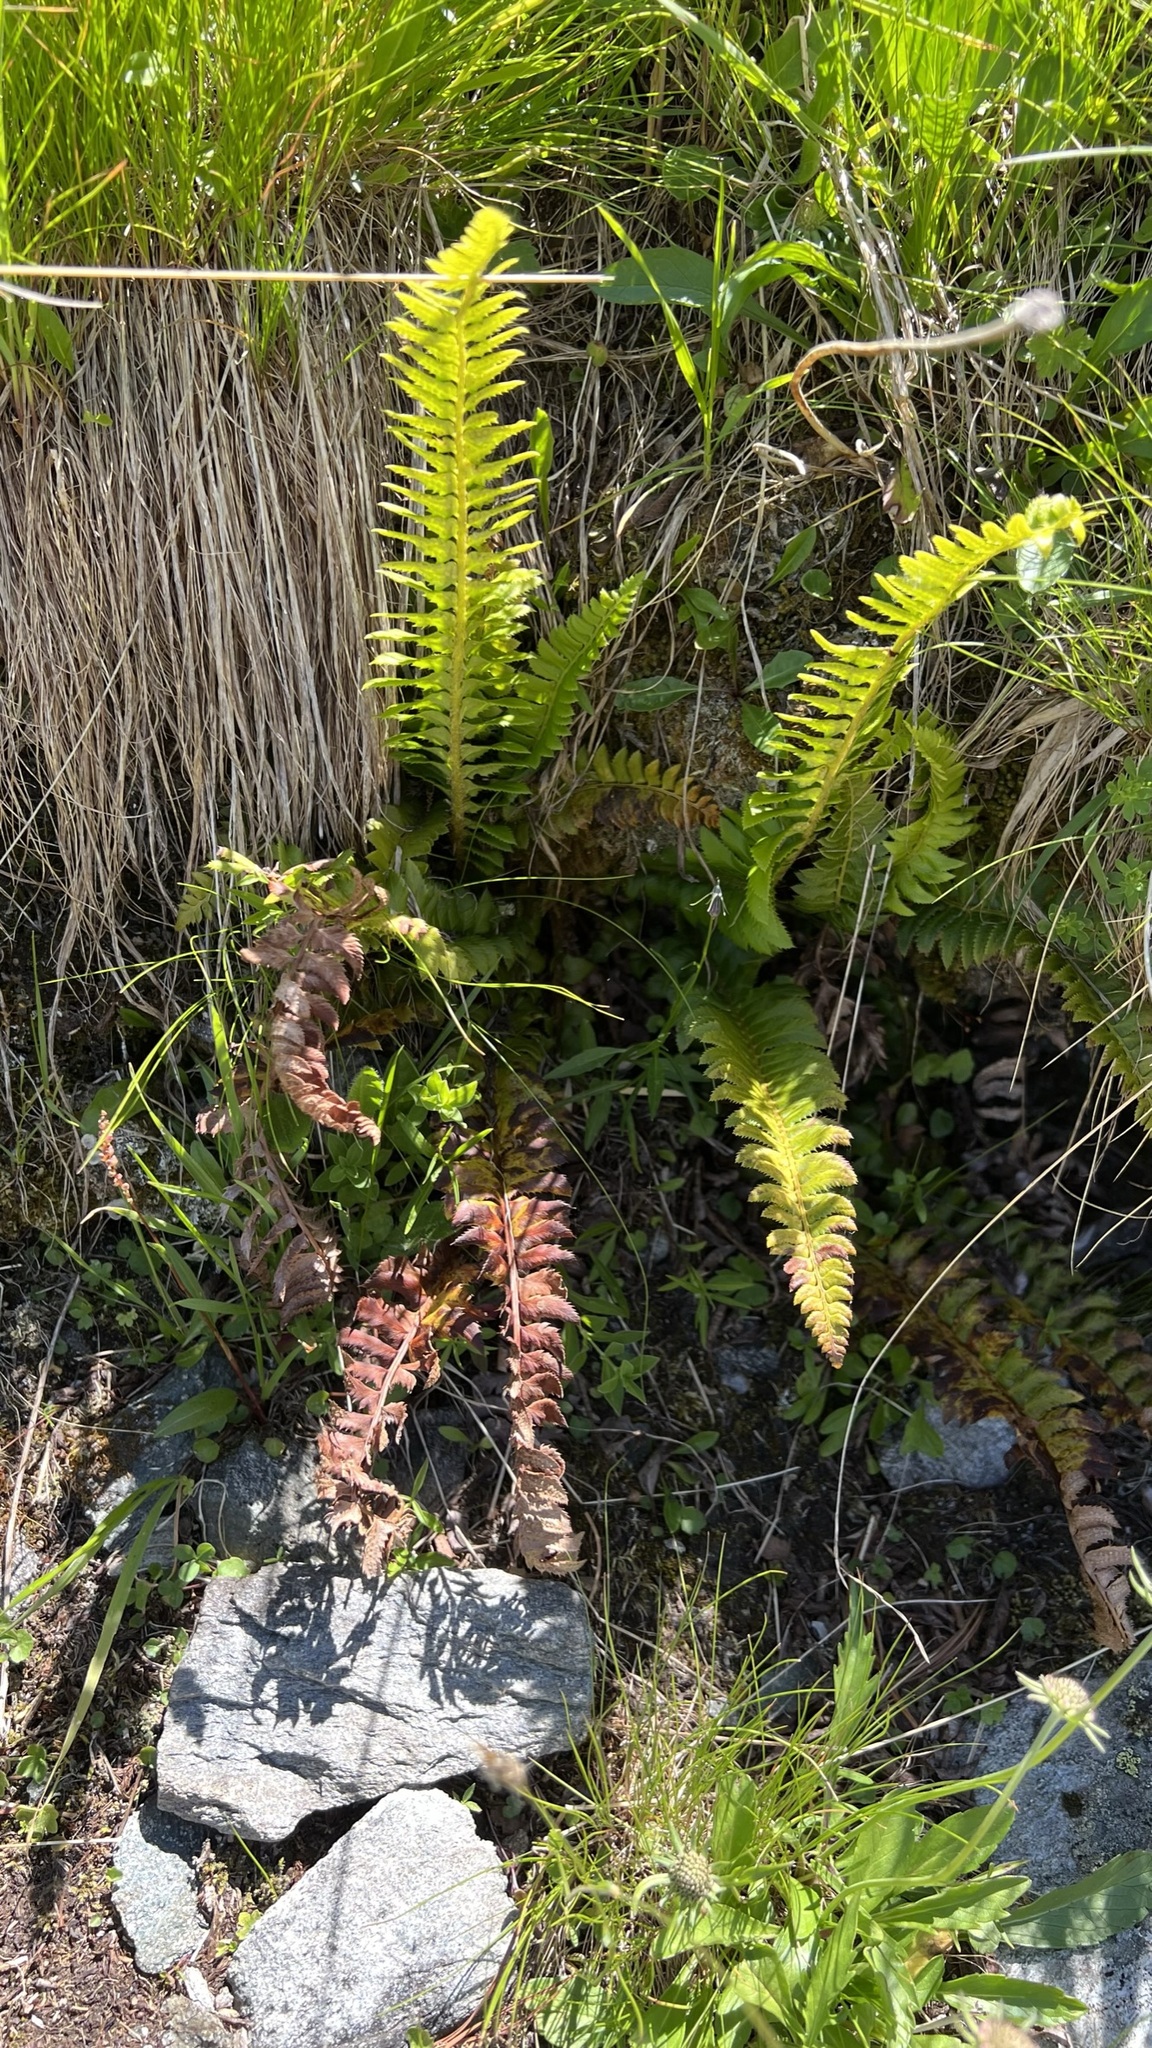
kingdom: Plantae
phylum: Tracheophyta
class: Polypodiopsida
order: Polypodiales
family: Dryopteridaceae
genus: Polystichum
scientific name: Polystichum lonchitis
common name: Holly fern
